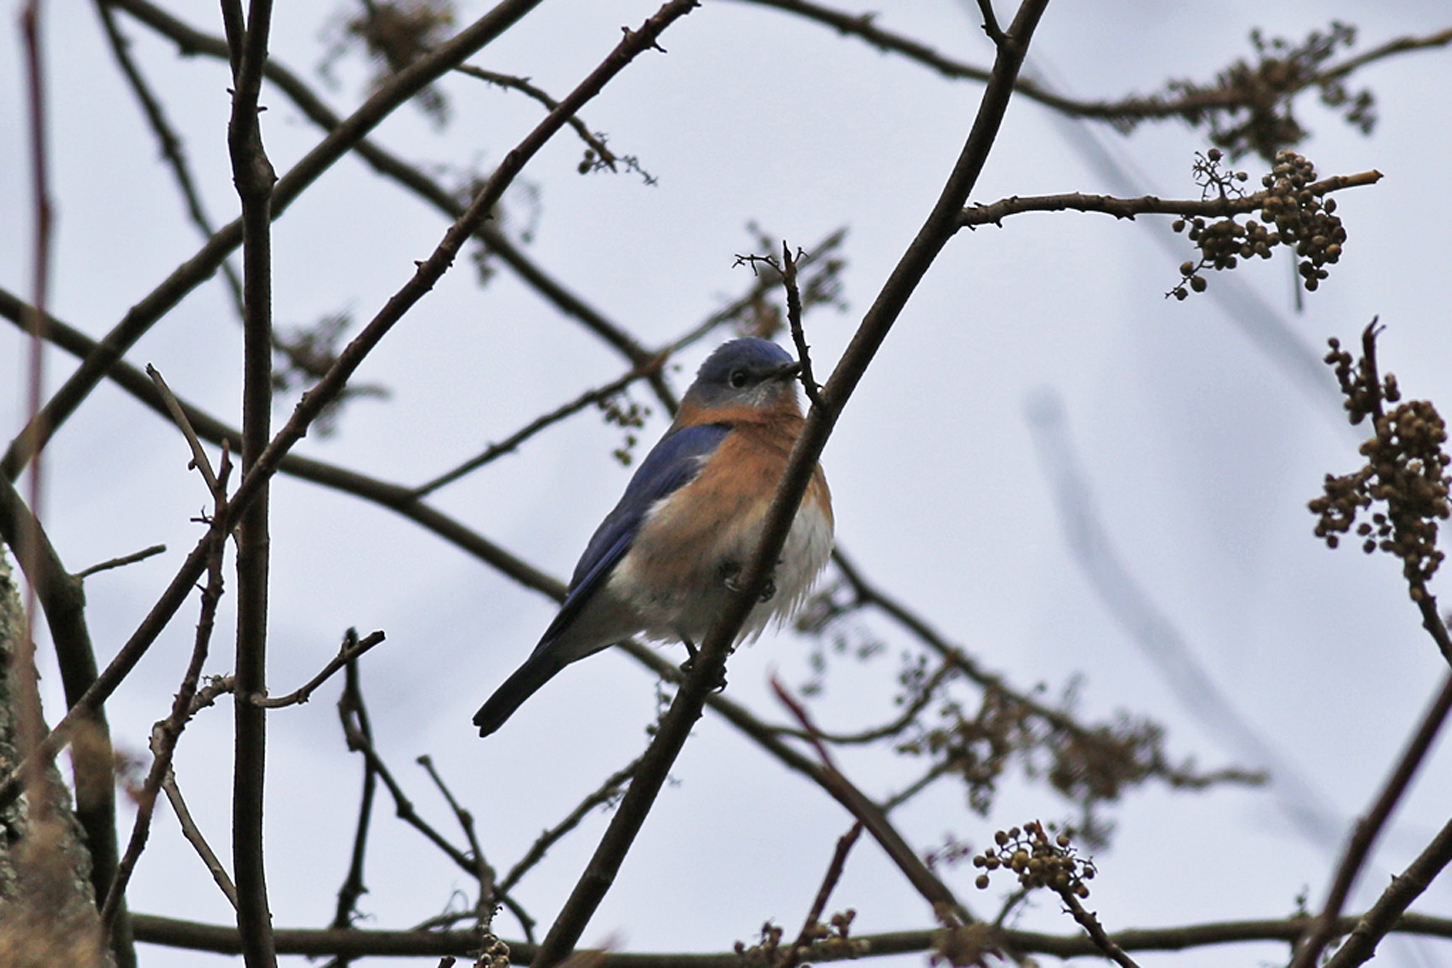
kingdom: Animalia
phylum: Chordata
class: Aves
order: Passeriformes
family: Turdidae
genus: Sialia
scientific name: Sialia sialis
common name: Eastern bluebird
